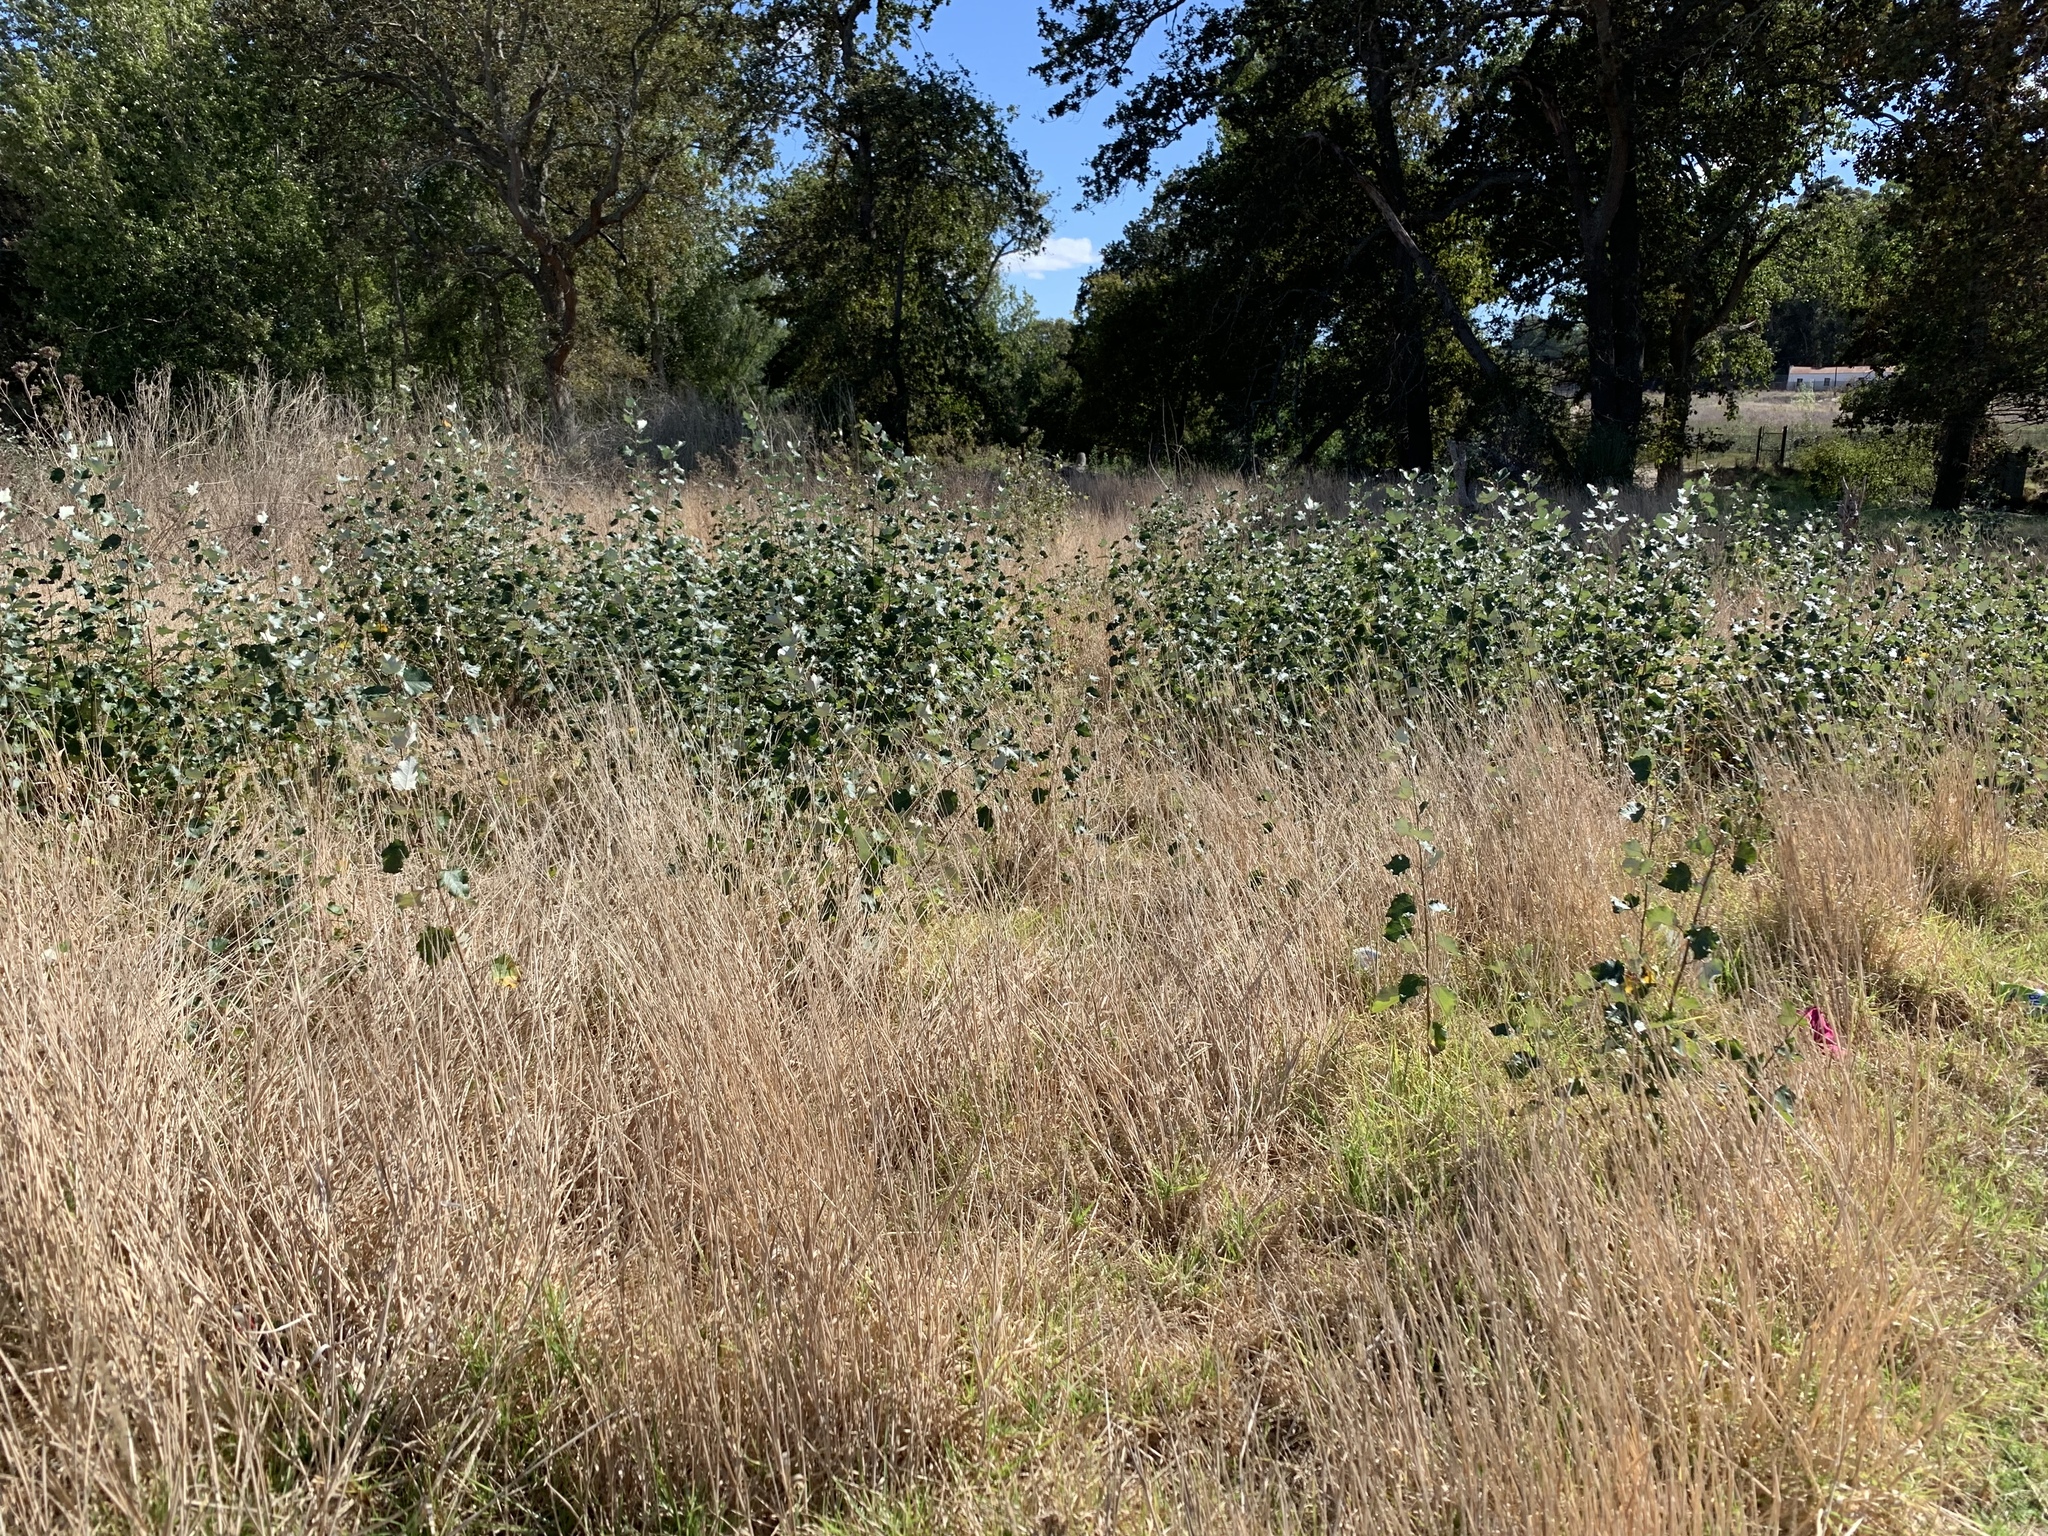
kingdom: Plantae
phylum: Tracheophyta
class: Magnoliopsida
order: Malpighiales
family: Salicaceae
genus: Populus
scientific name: Populus canescens
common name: Gray poplar
